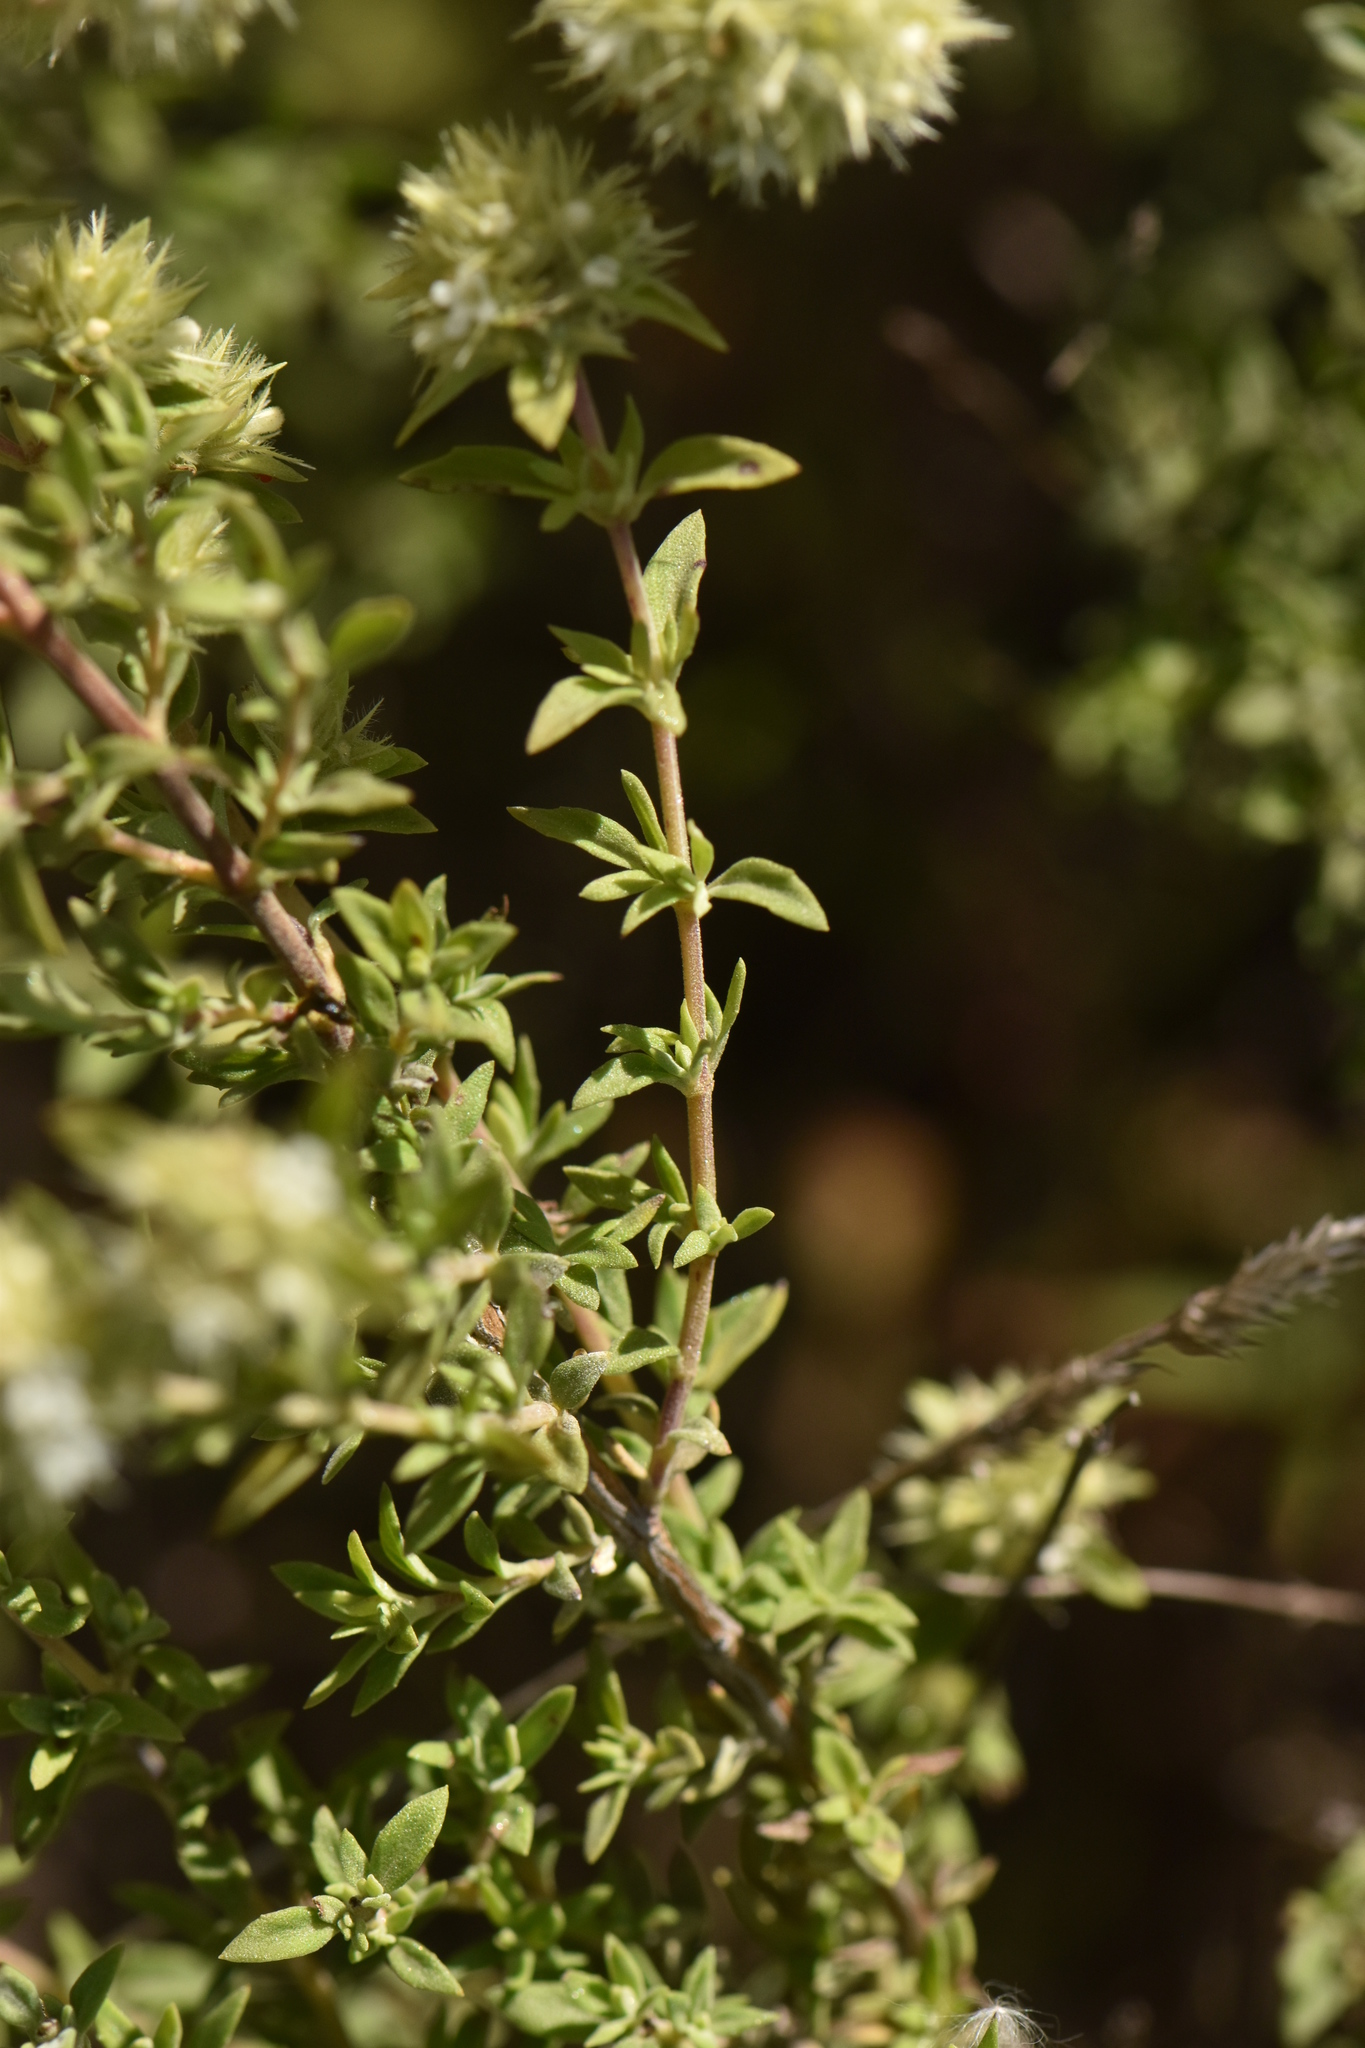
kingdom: Plantae
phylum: Tracheophyta
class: Magnoliopsida
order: Lamiales
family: Lamiaceae
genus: Thymus
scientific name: Thymus mastichina
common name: Mastic thyme
